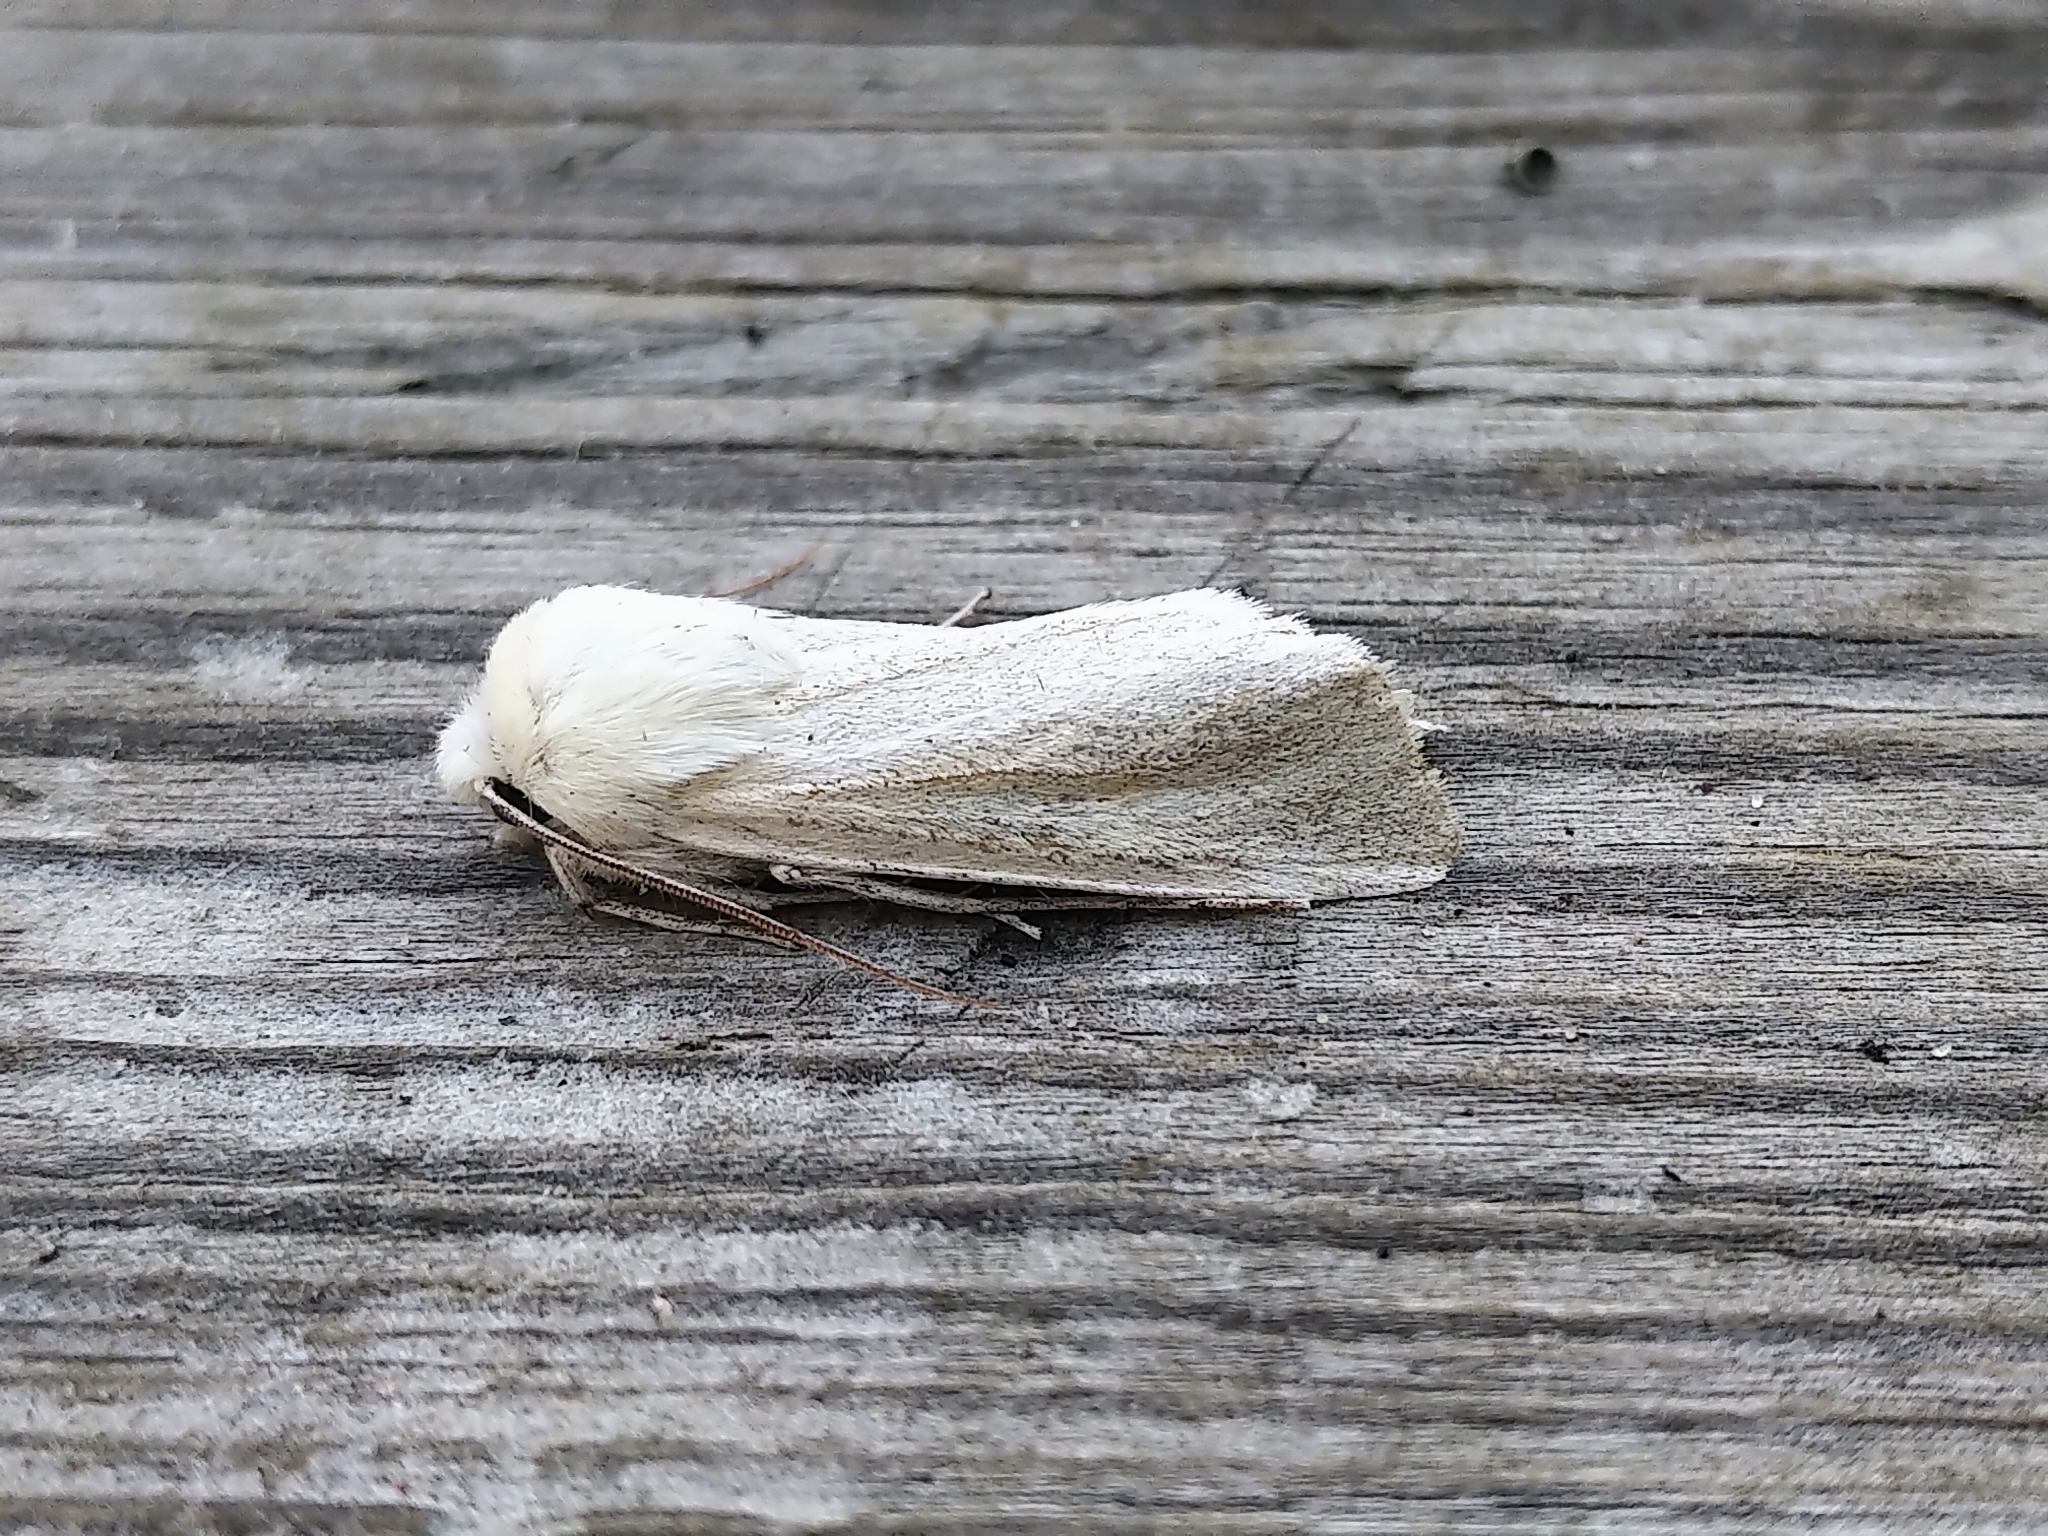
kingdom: Animalia
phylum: Arthropoda
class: Insecta
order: Lepidoptera
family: Noctuidae
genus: Copablepharon
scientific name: Copablepharon viridisparsa
